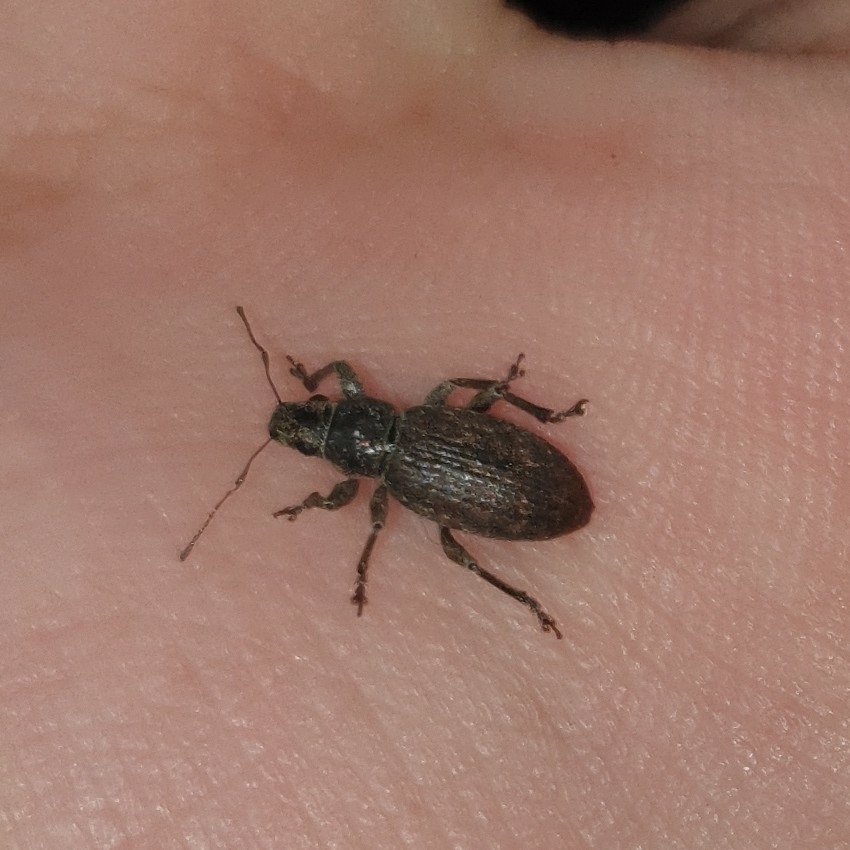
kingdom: Animalia
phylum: Arthropoda
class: Insecta
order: Coleoptera
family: Curculionidae
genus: Brachyderes
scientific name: Brachyderes incanus
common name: Weevil
